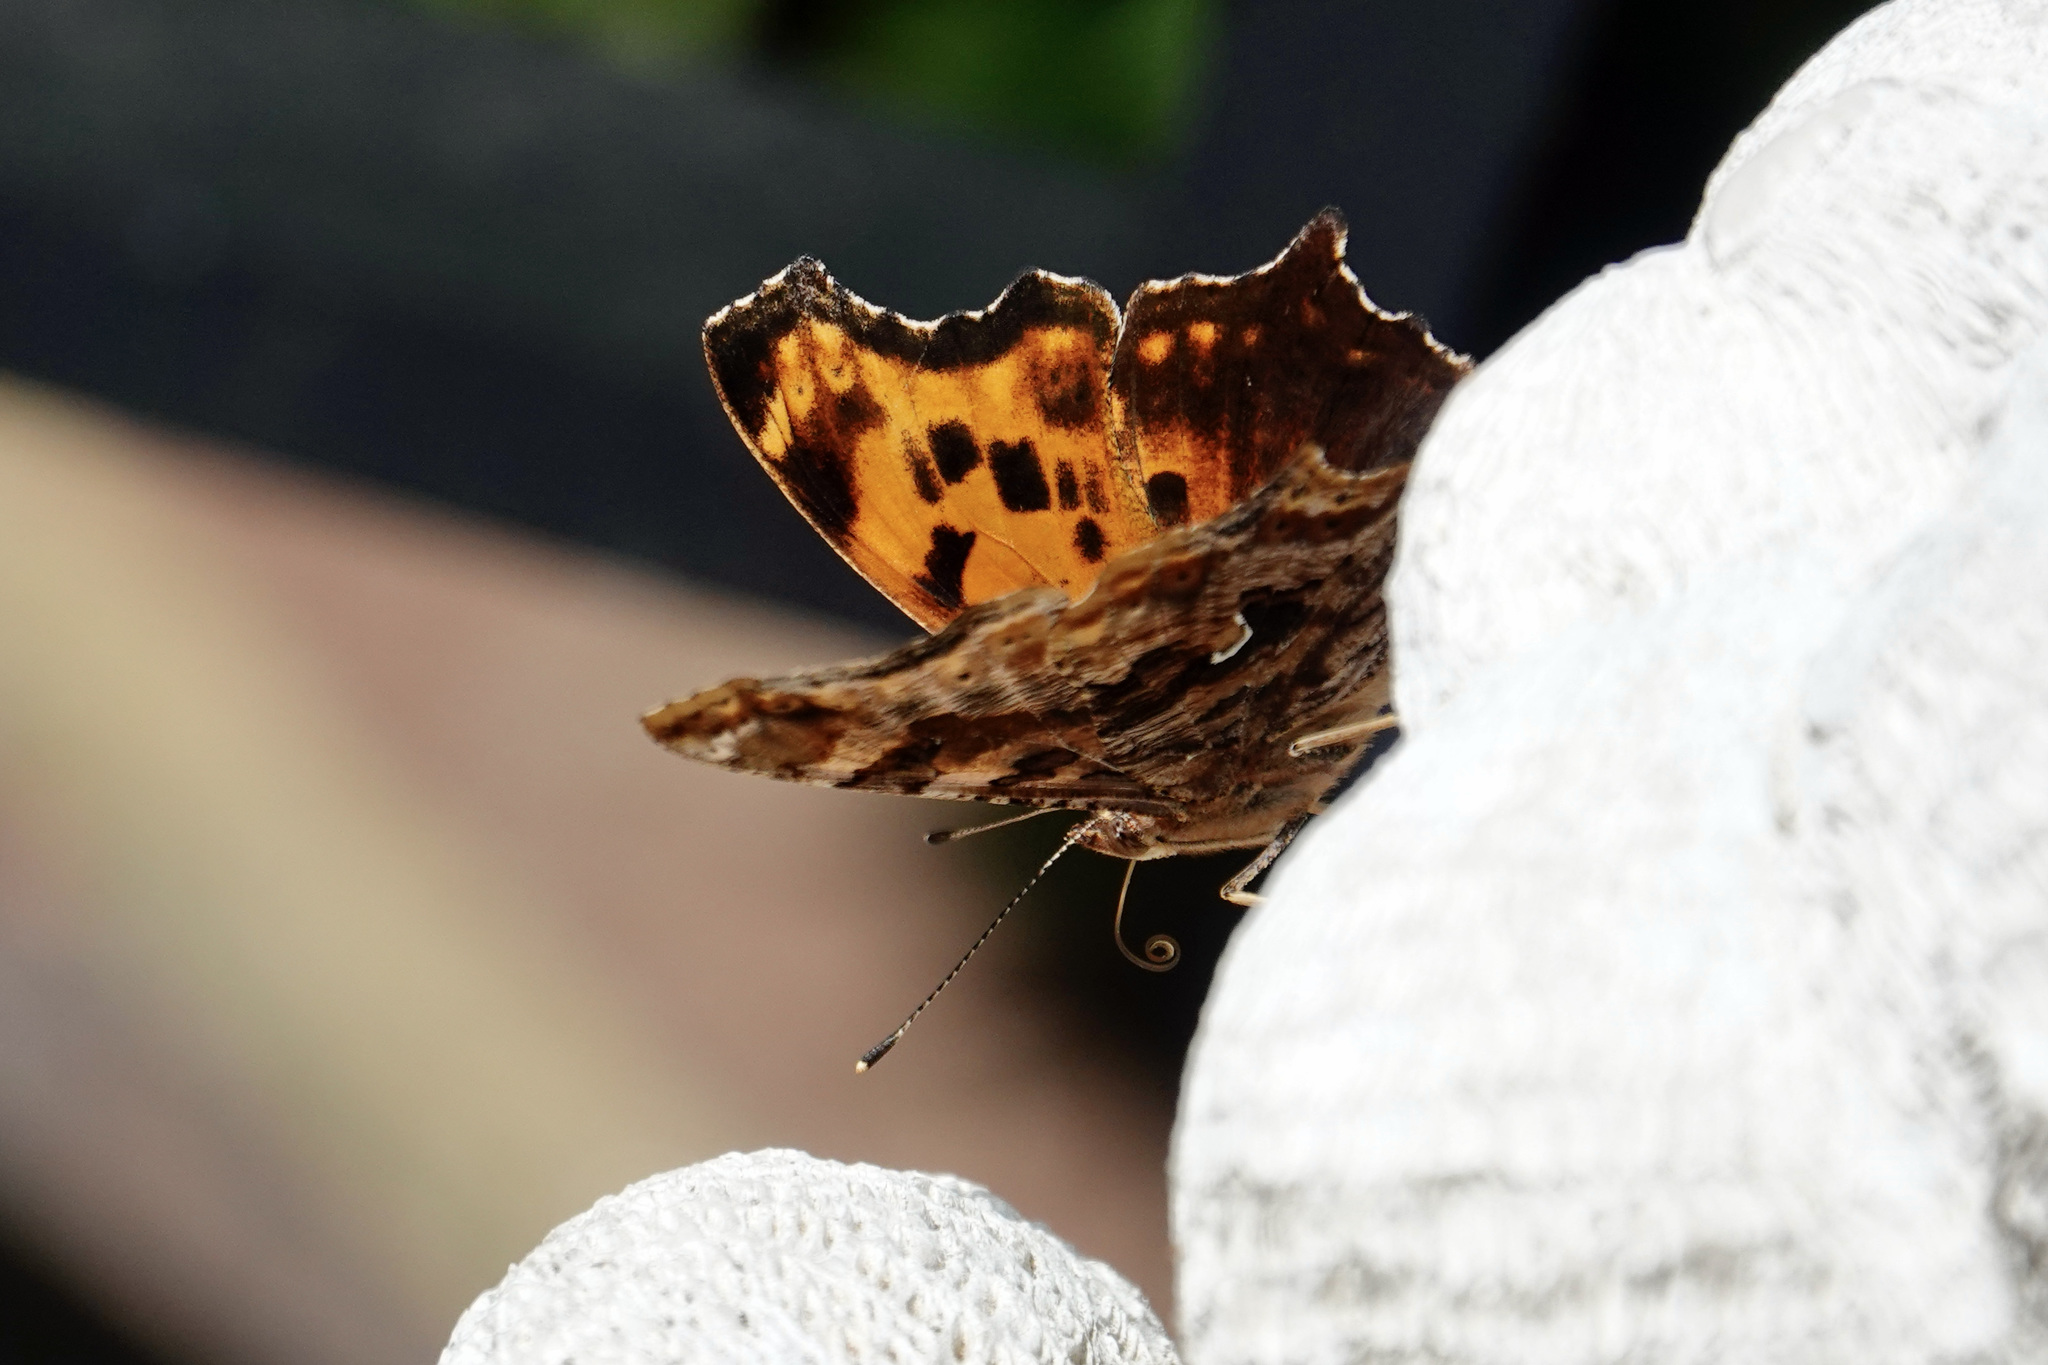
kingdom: Animalia
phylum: Arthropoda
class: Insecta
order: Lepidoptera
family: Nymphalidae
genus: Polygonia
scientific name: Polygonia comma
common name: Eastern comma
